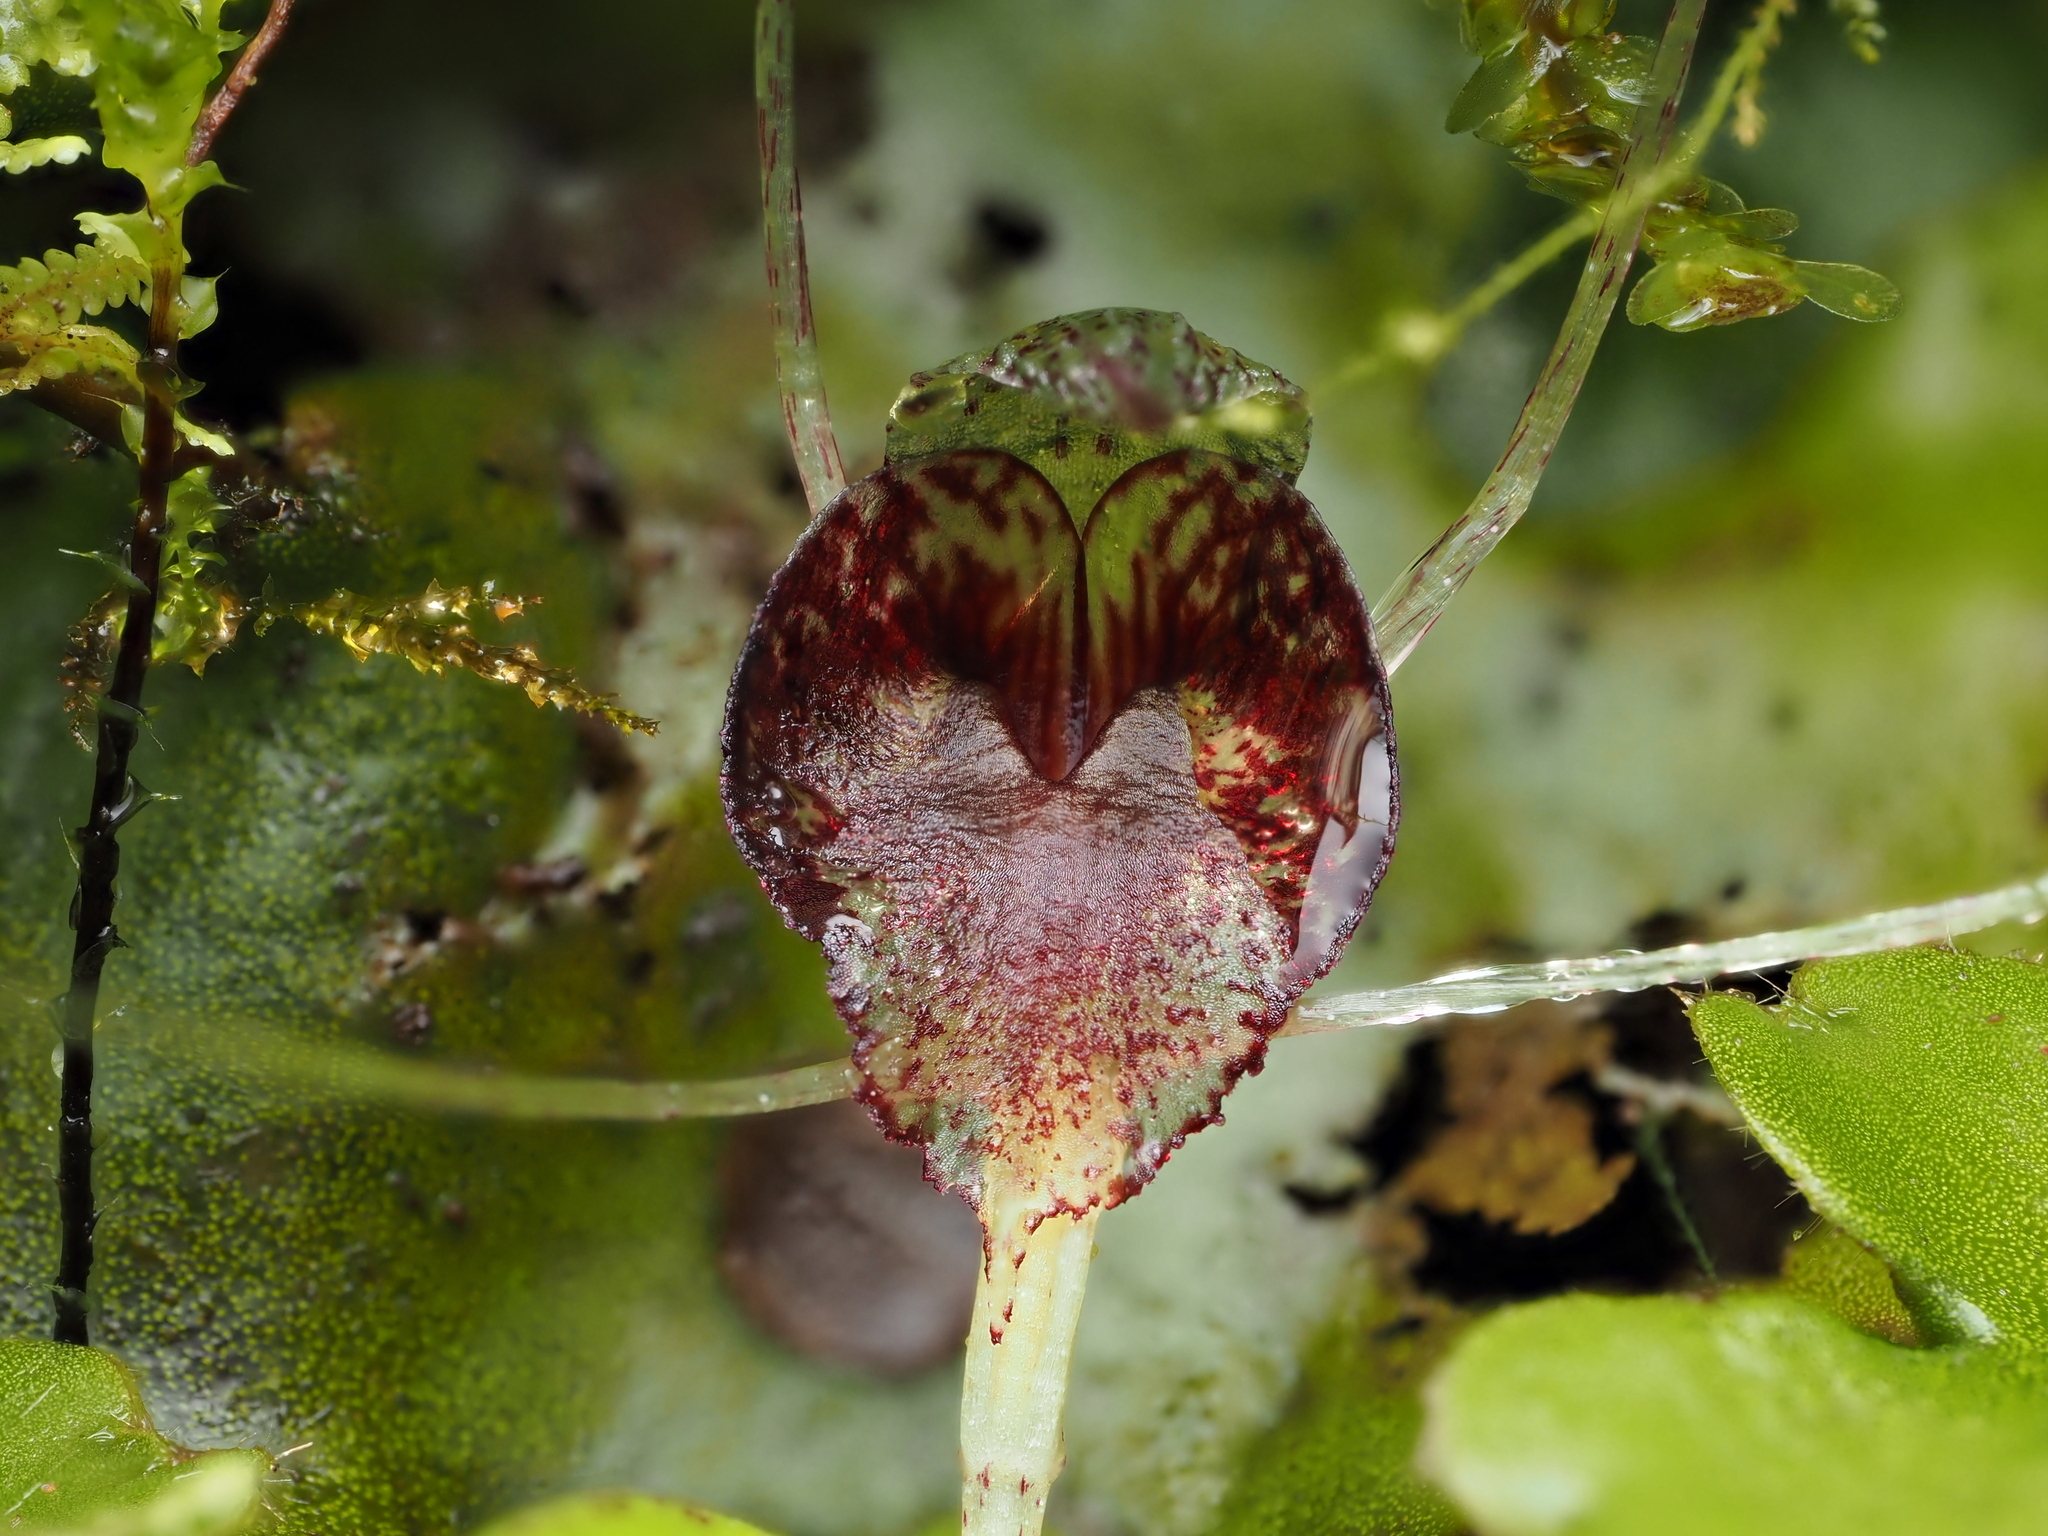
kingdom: Plantae
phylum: Tracheophyta
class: Liliopsida
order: Asparagales
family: Orchidaceae
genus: Corybas
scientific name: Corybas hatchii
